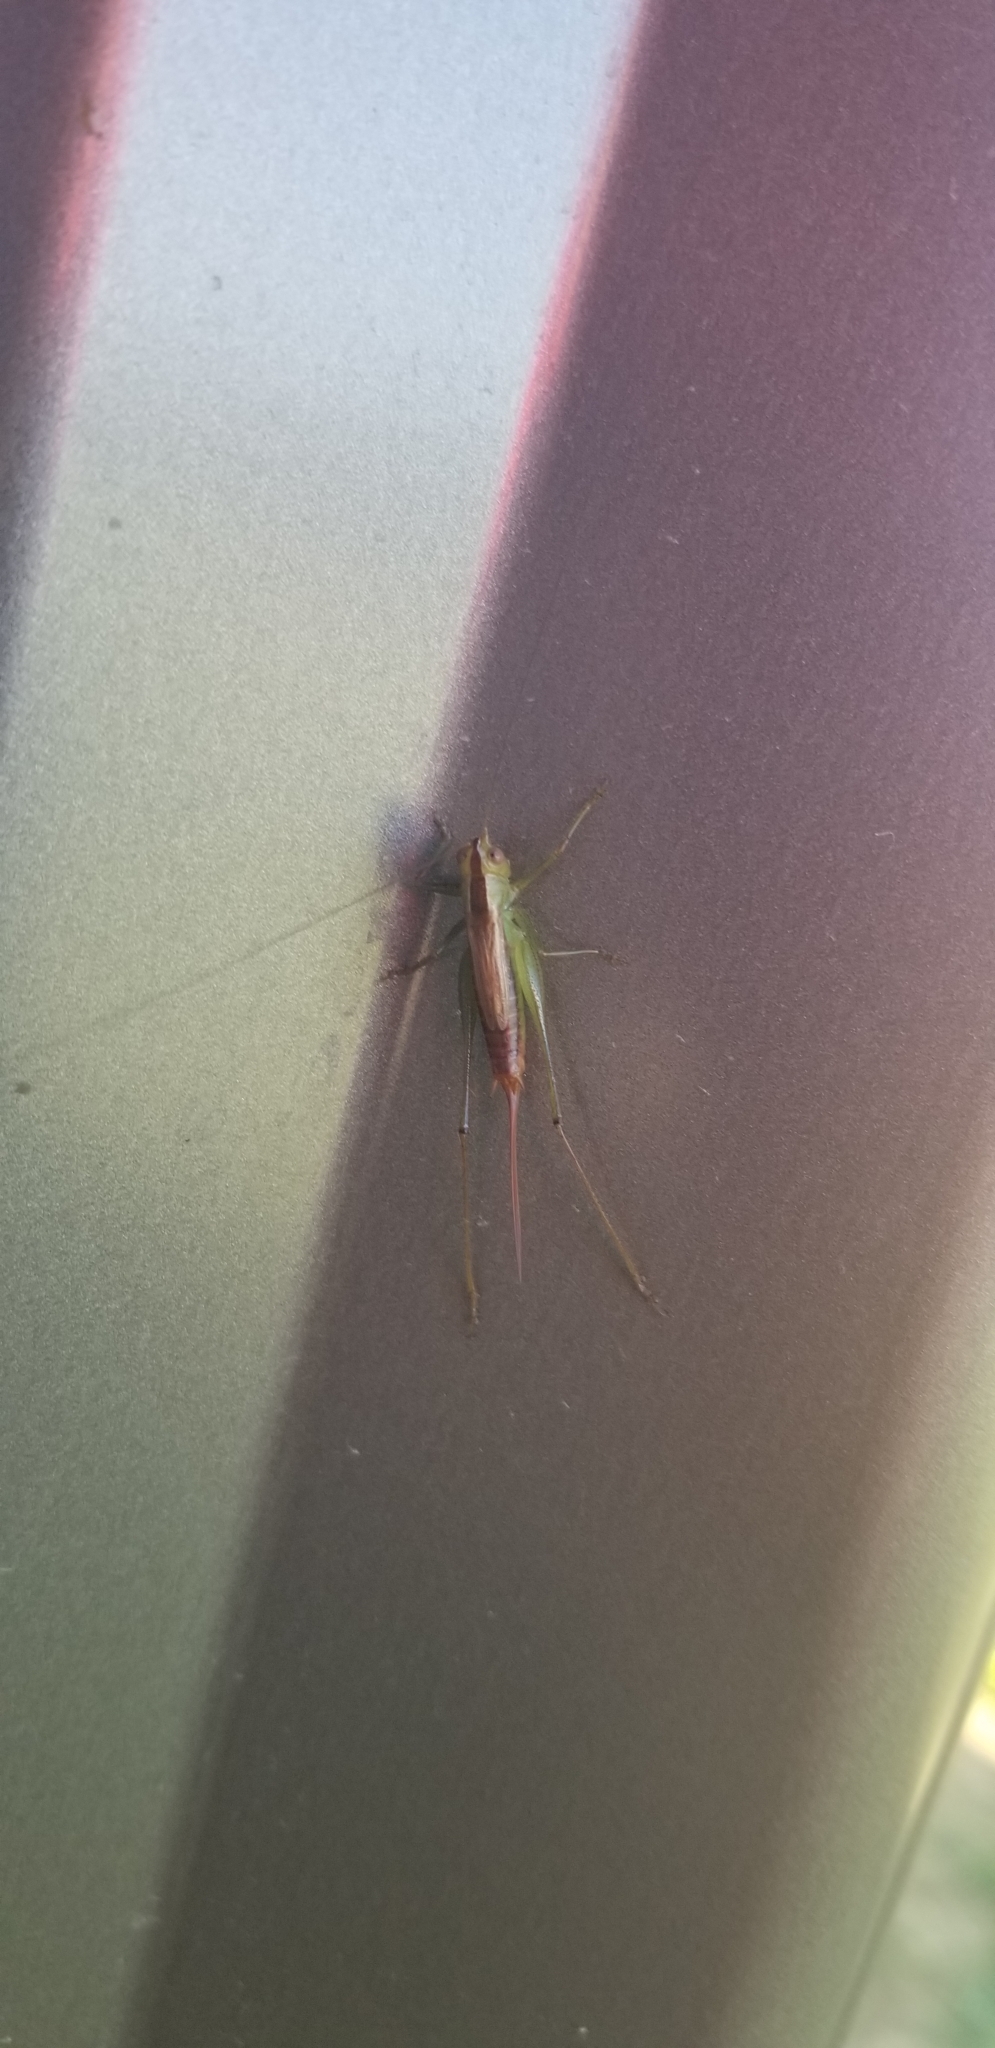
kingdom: Animalia
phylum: Arthropoda
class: Insecta
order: Orthoptera
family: Tettigoniidae
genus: Conocephalus
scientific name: Conocephalus brevipennis
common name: Short-winged meadow katydid
